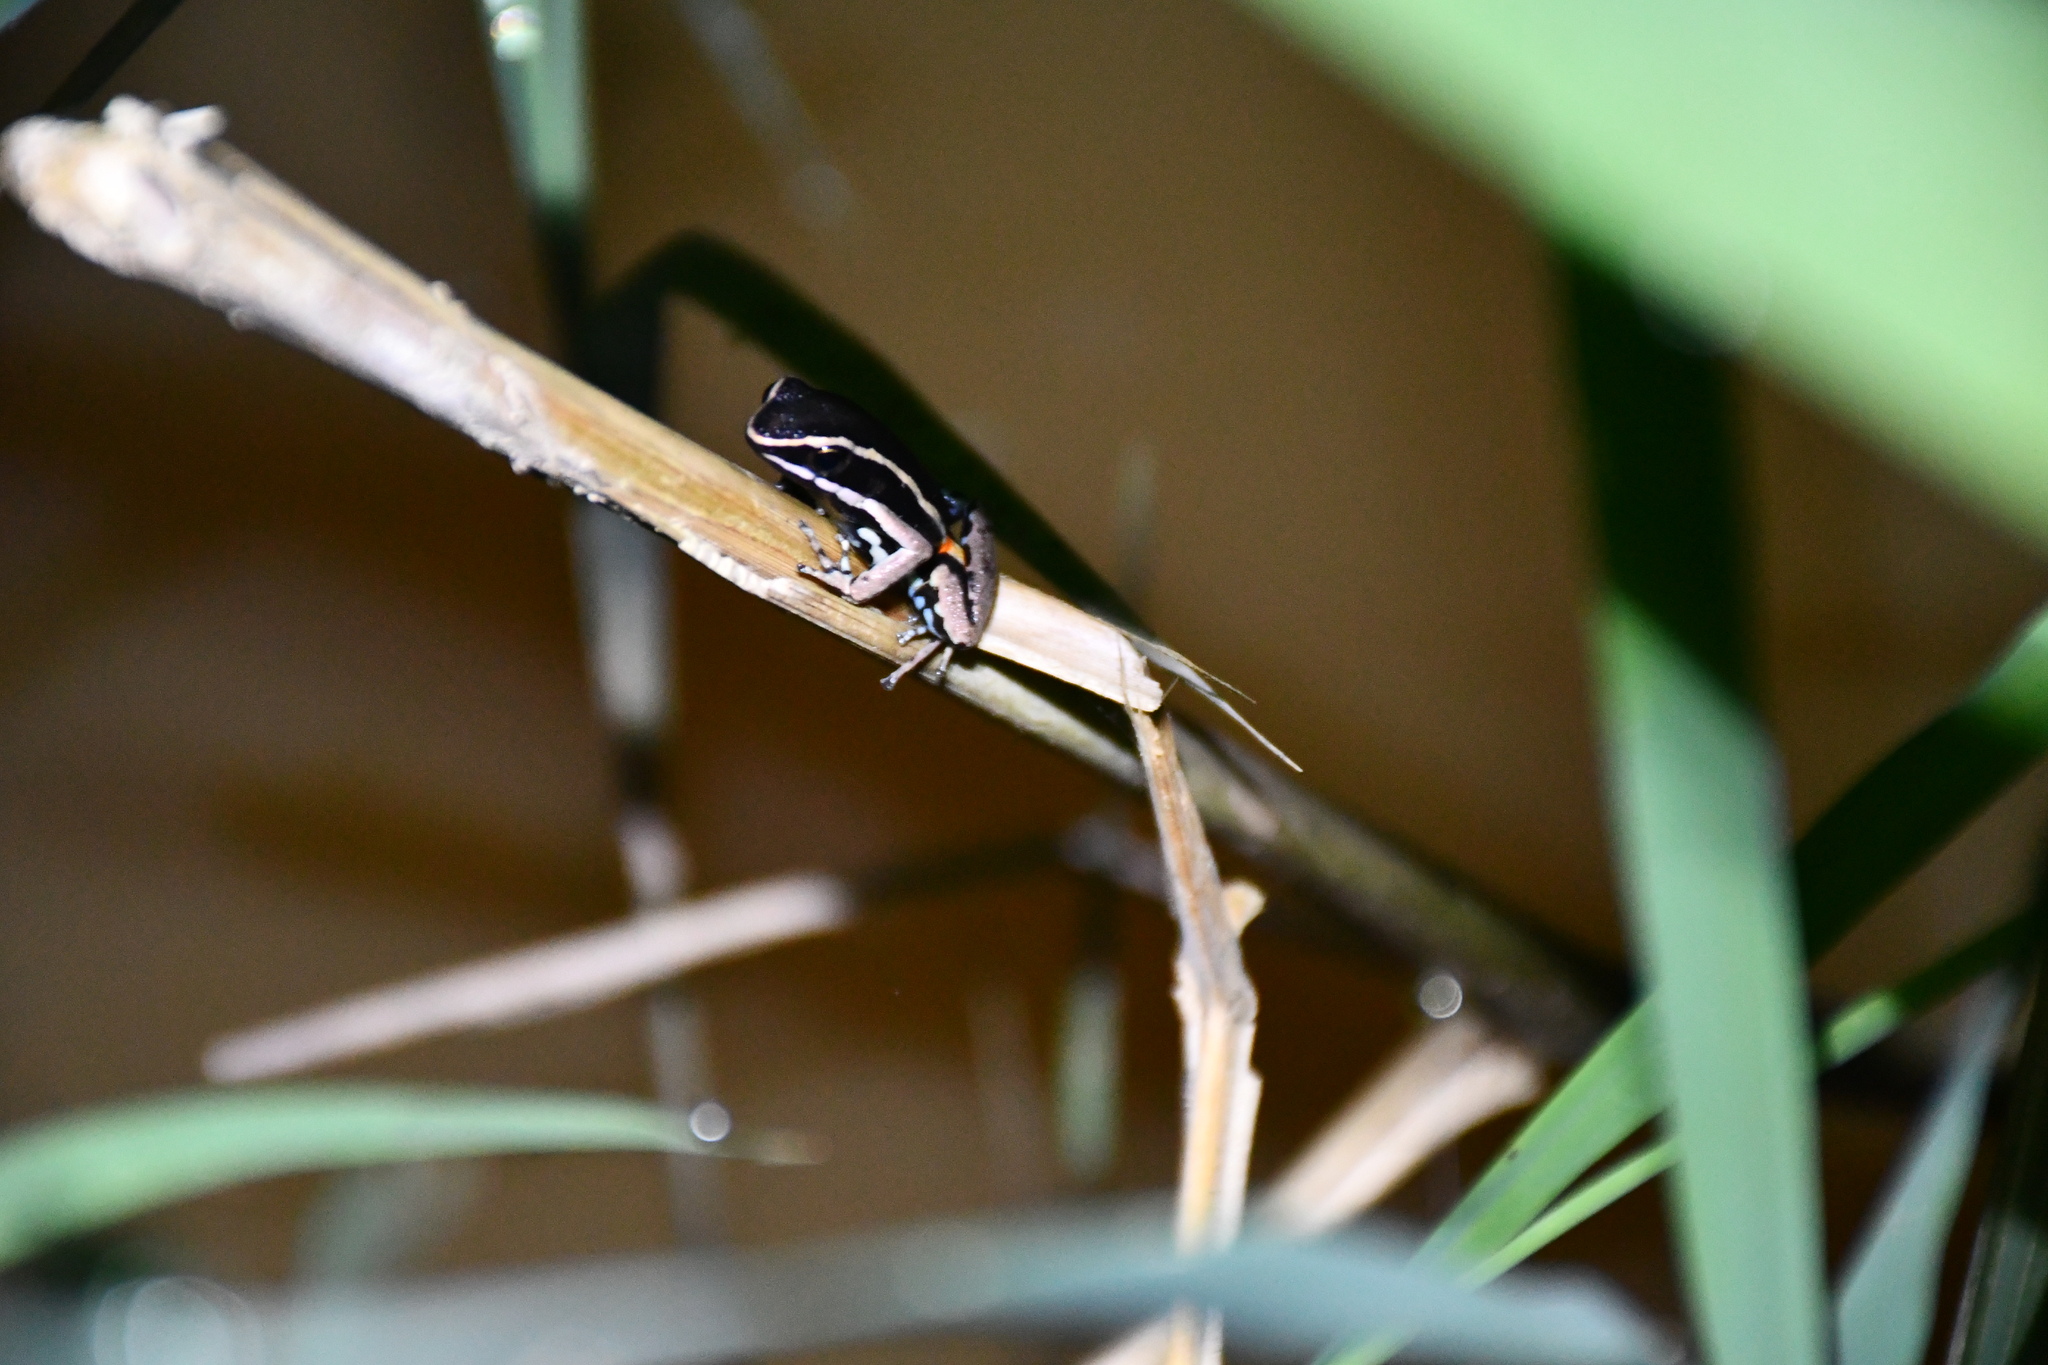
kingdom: Animalia
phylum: Chordata
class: Amphibia
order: Anura
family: Dendrobatidae
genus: Ameerega
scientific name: Ameerega picta
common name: Spot-legged poison frog
